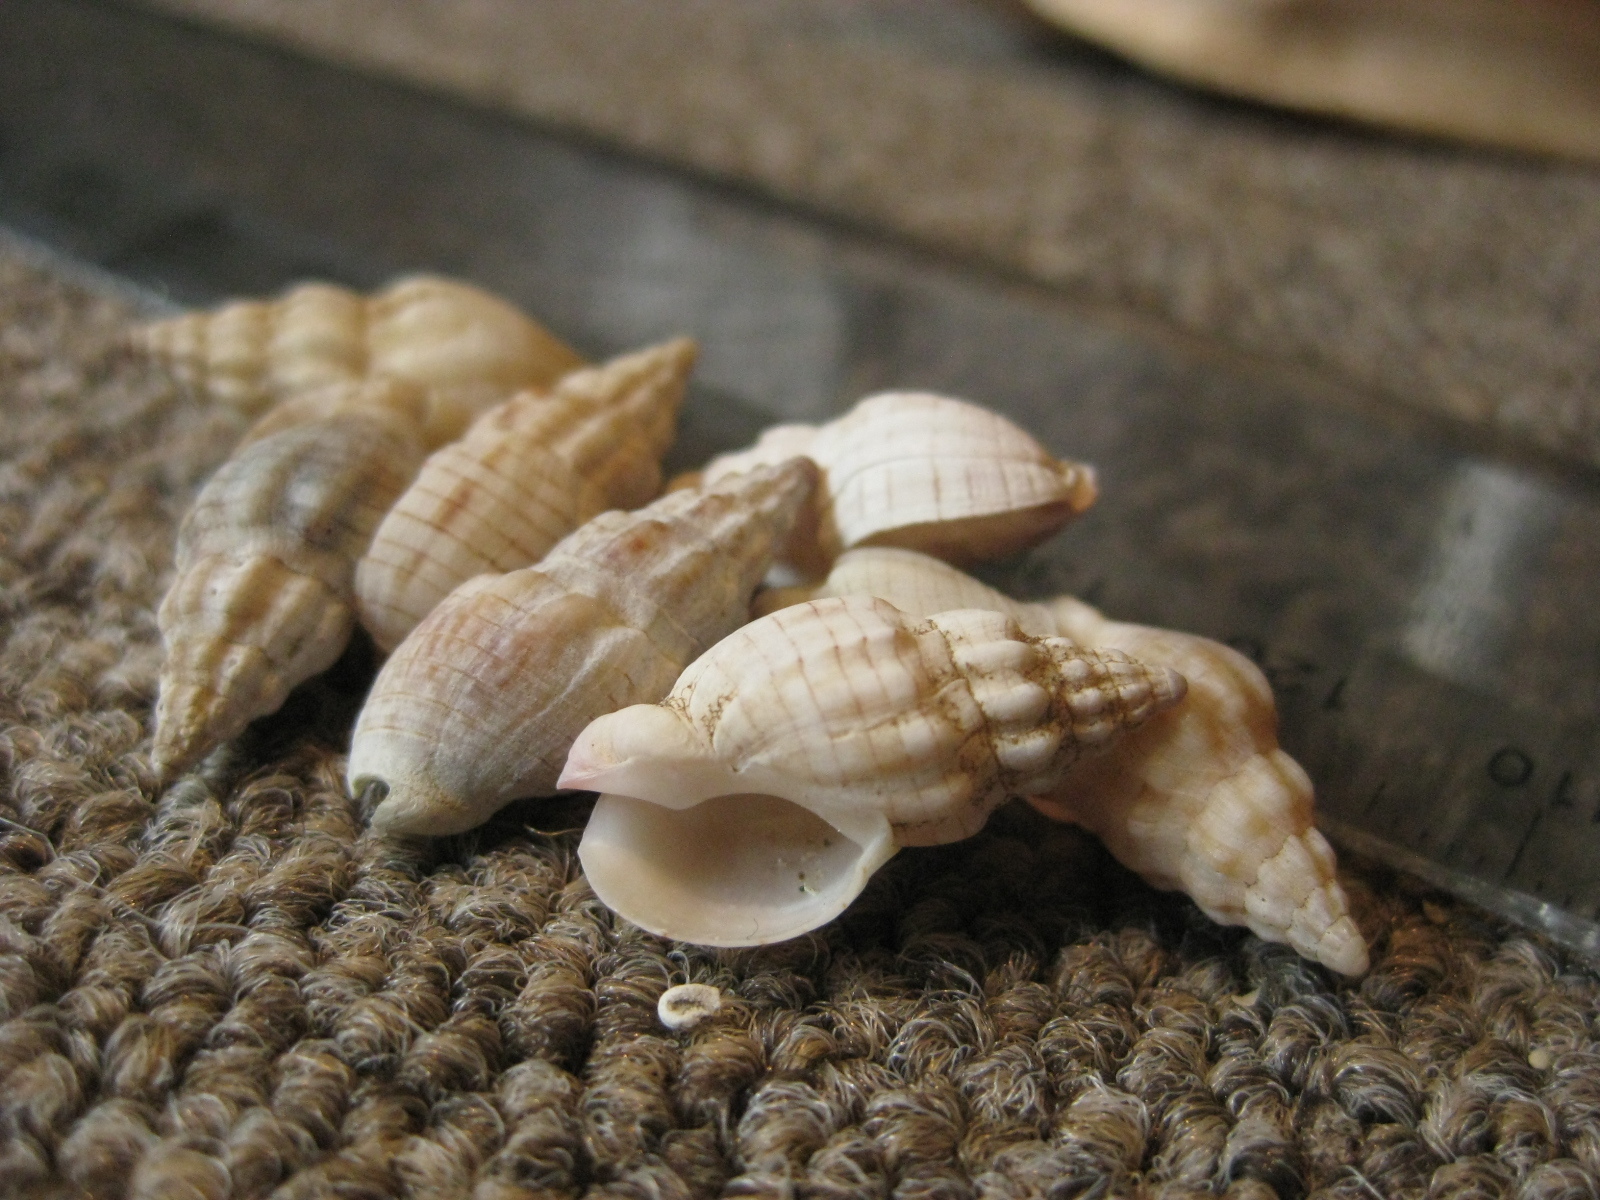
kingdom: Animalia
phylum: Mollusca
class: Gastropoda
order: Neogastropoda
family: Cominellidae
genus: Cominella
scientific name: Cominella quoyana
